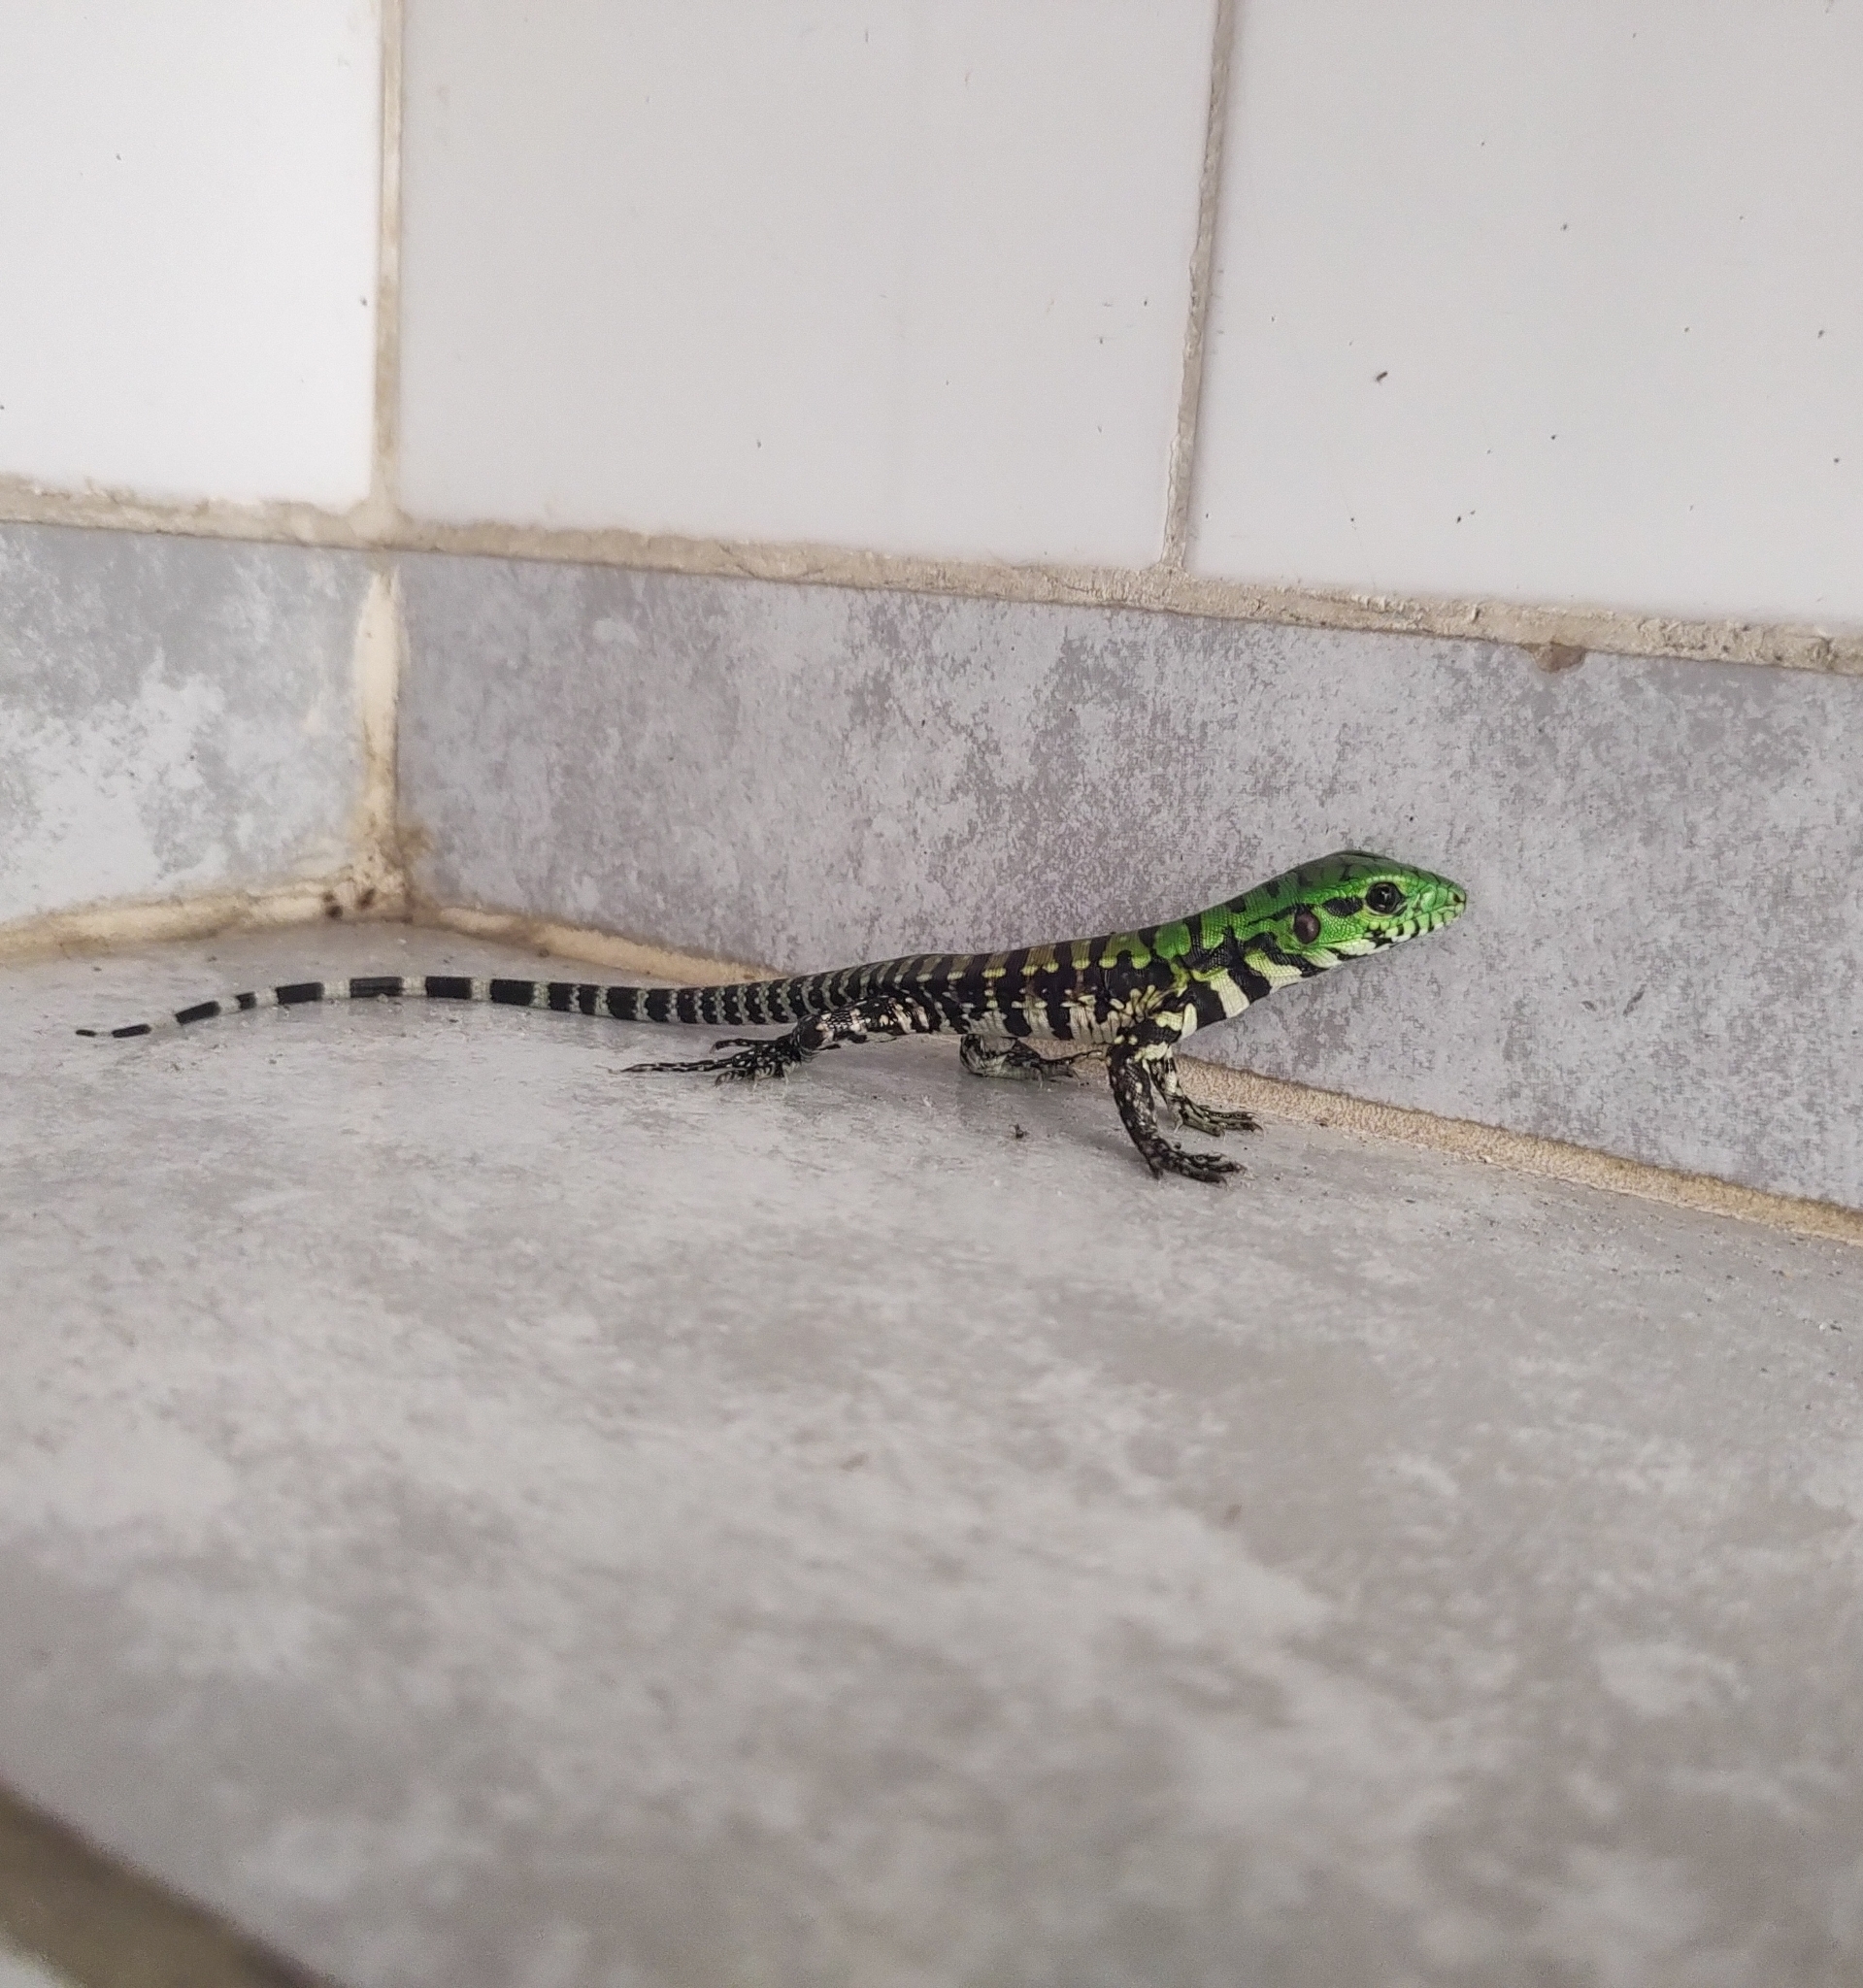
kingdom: Animalia
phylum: Chordata
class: Squamata
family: Teiidae
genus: Salvator
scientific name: Salvator merianae
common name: Argentine black and white tegu
